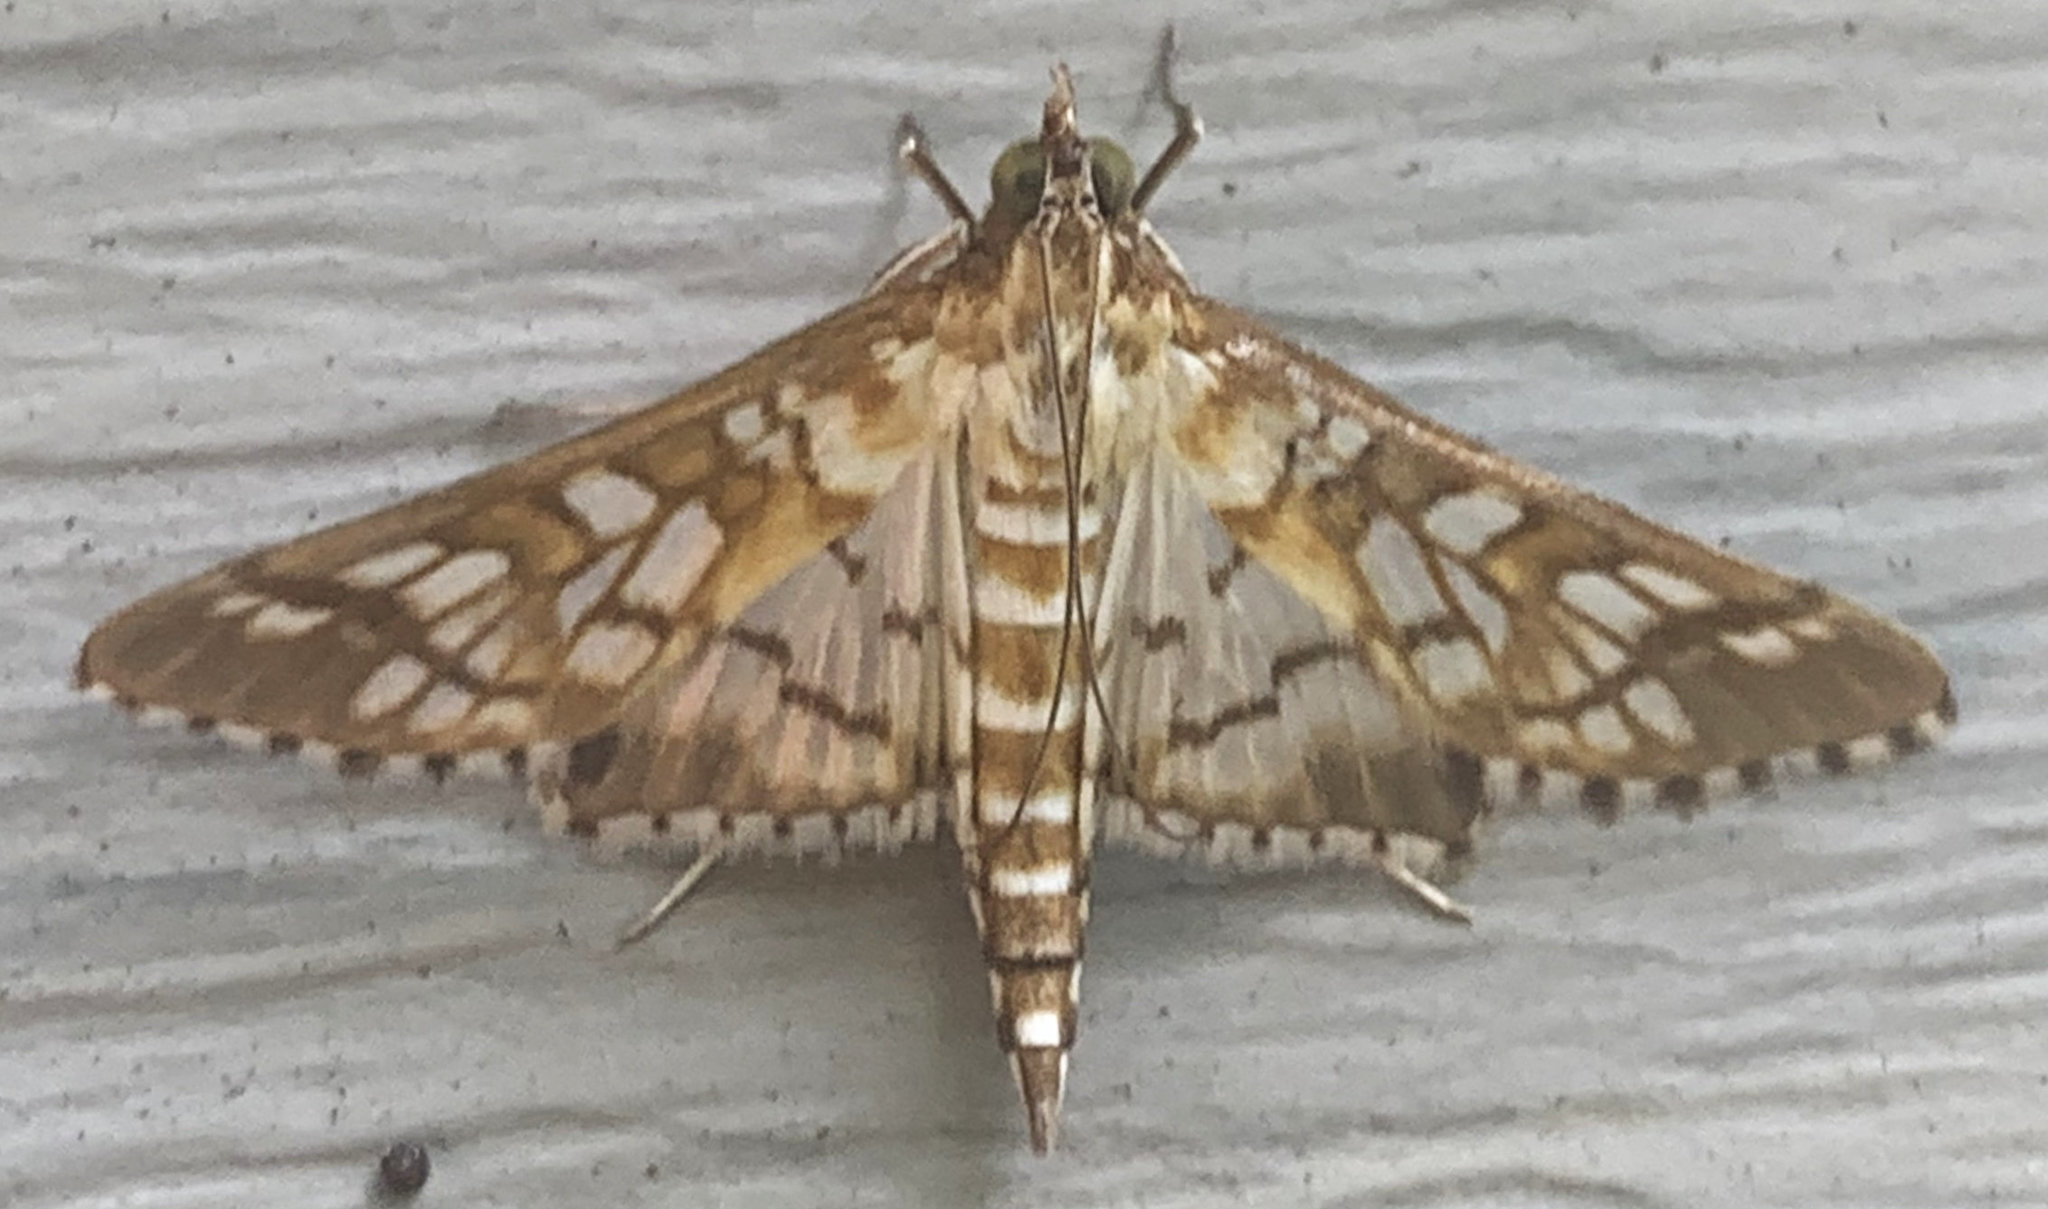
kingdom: Animalia
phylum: Arthropoda
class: Insecta
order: Lepidoptera
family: Crambidae
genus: Epipagis
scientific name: Epipagis fenestralis
